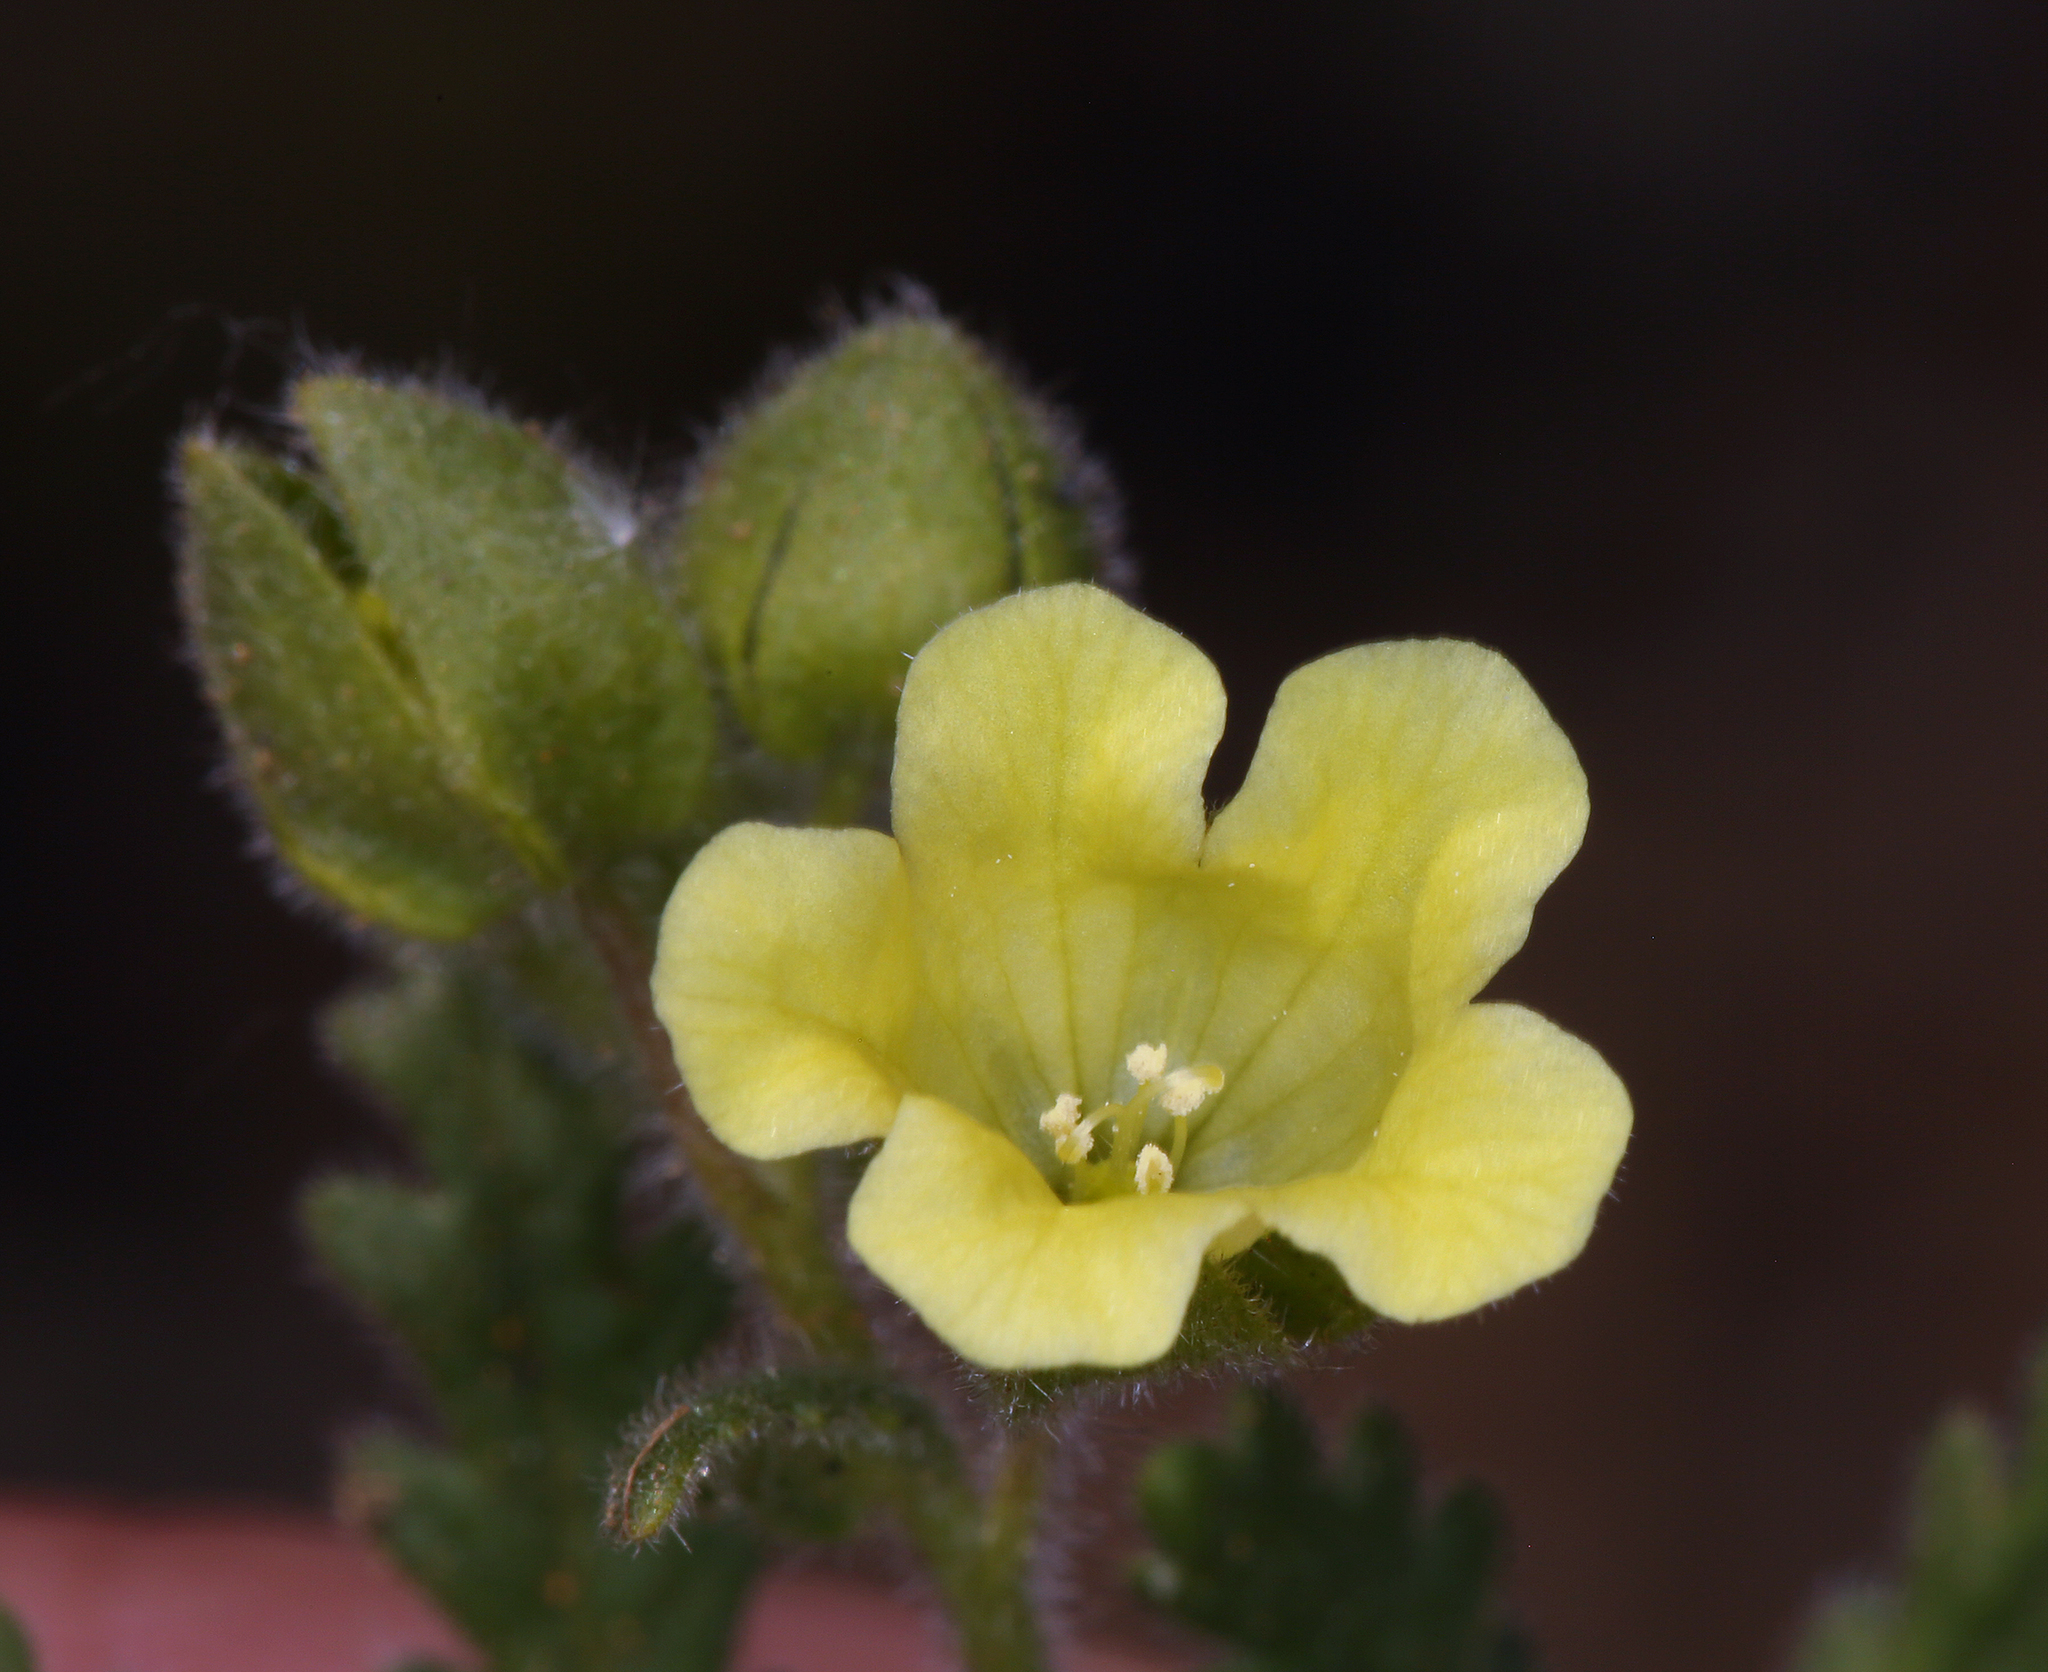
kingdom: Plantae
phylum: Tracheophyta
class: Magnoliopsida
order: Boraginales
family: Hydrophyllaceae
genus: Emmenanthe
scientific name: Emmenanthe penduliflora
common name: Whispering-bells
